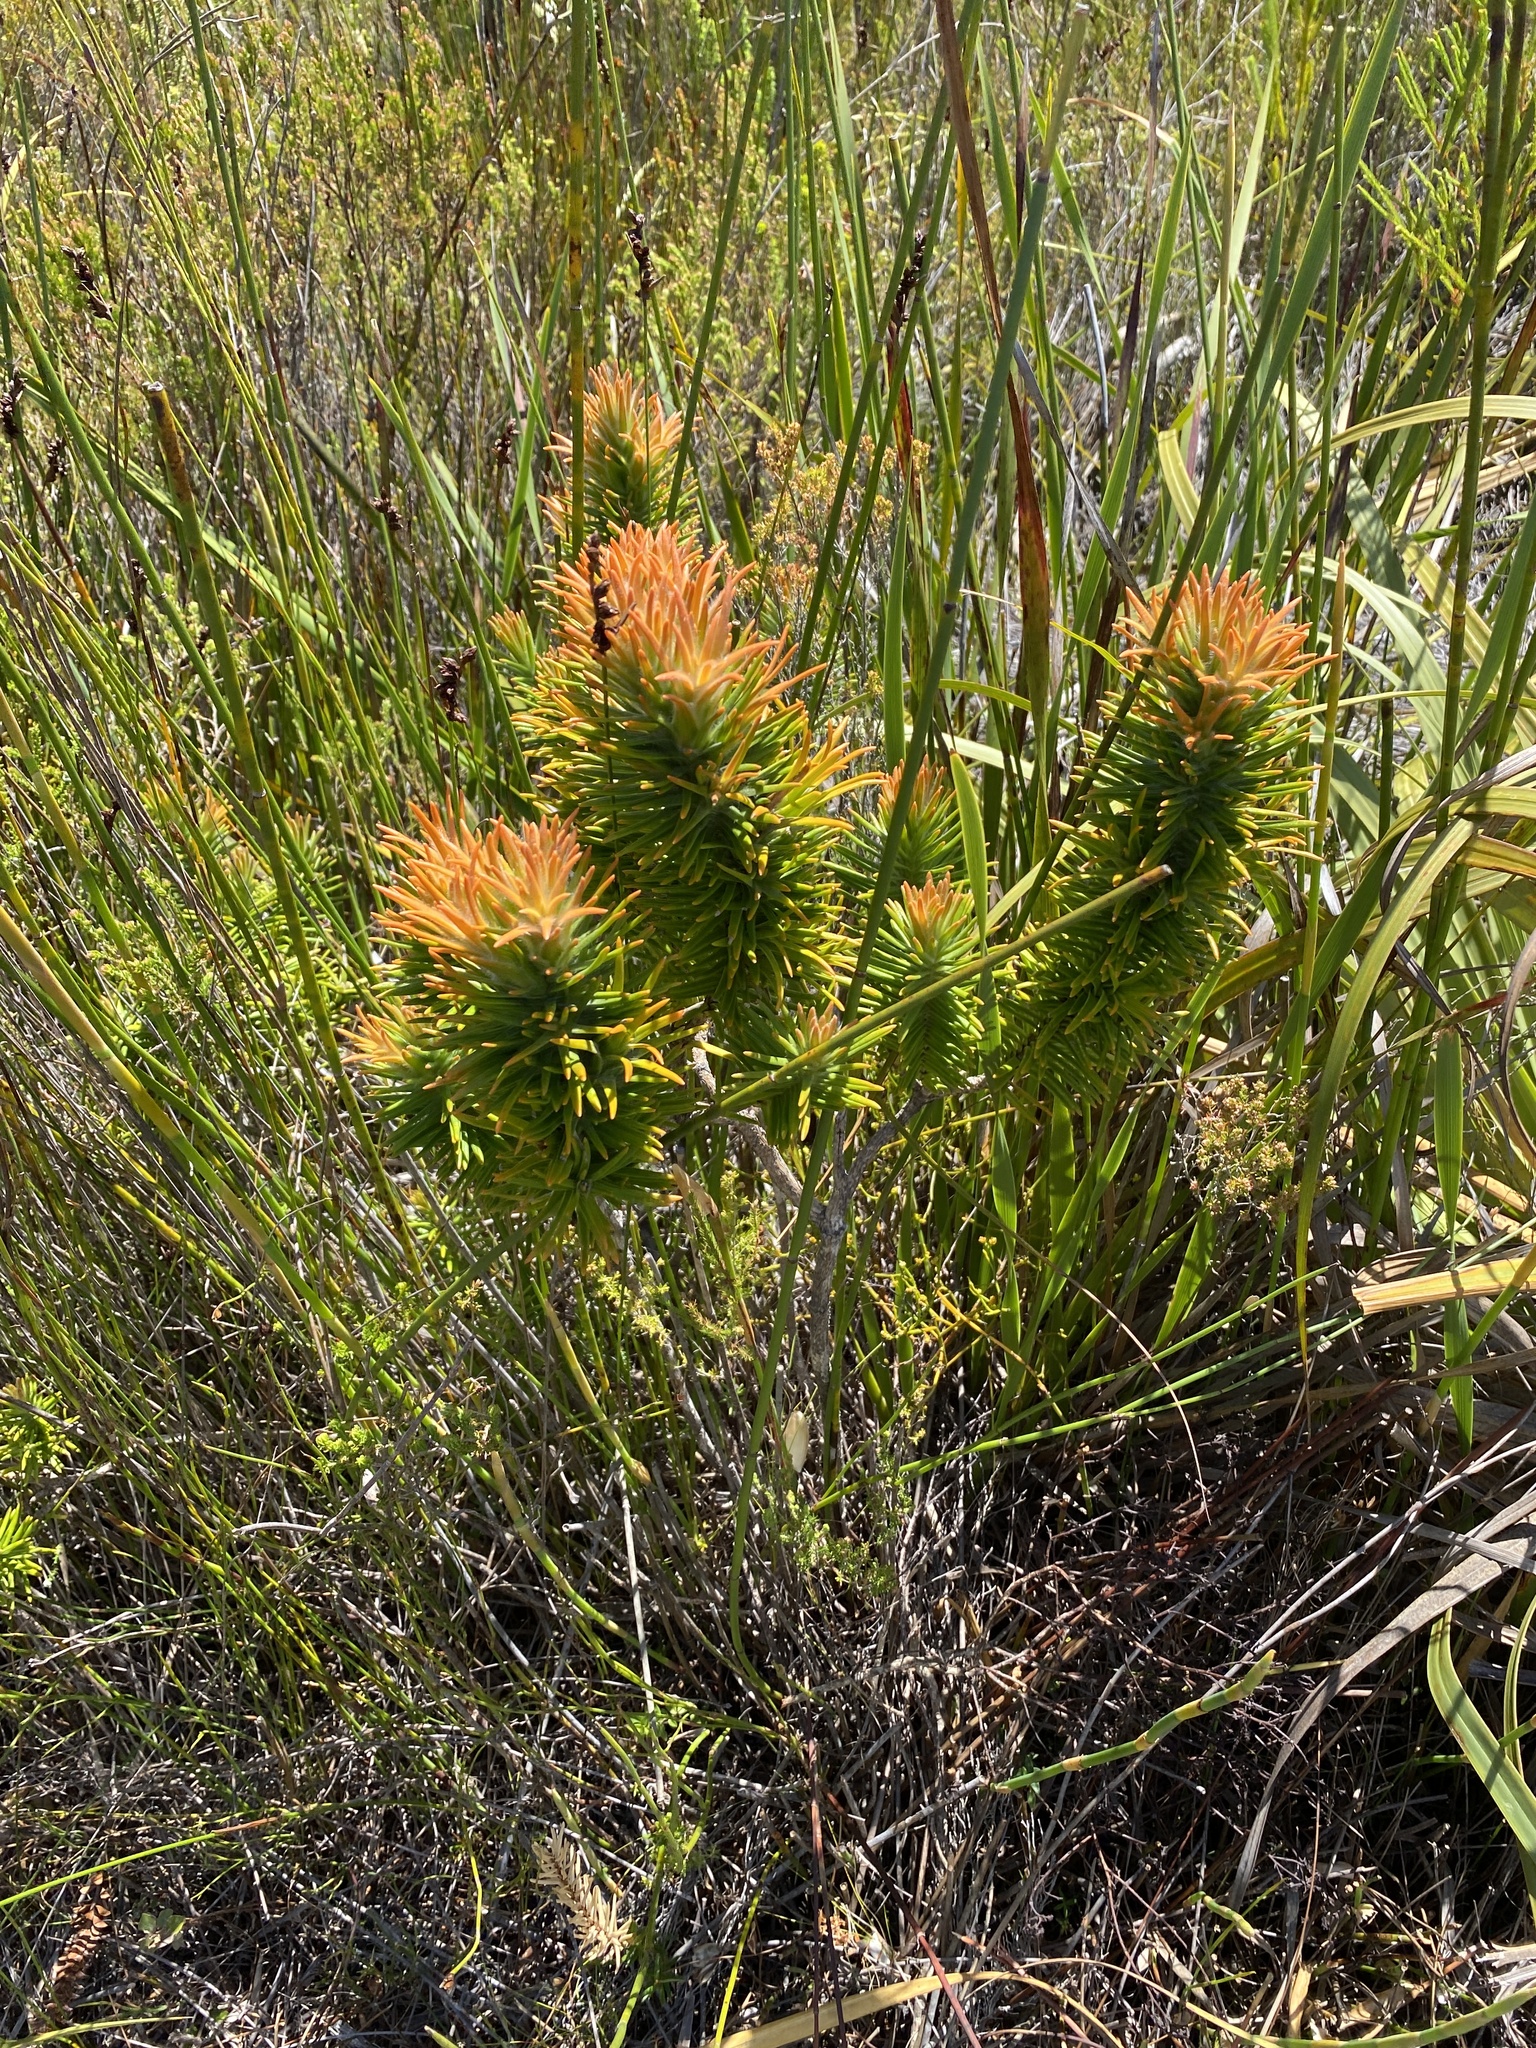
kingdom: Plantae
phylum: Tracheophyta
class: Magnoliopsida
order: Lamiales
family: Stilbaceae
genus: Retzia
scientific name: Retzia capensis
